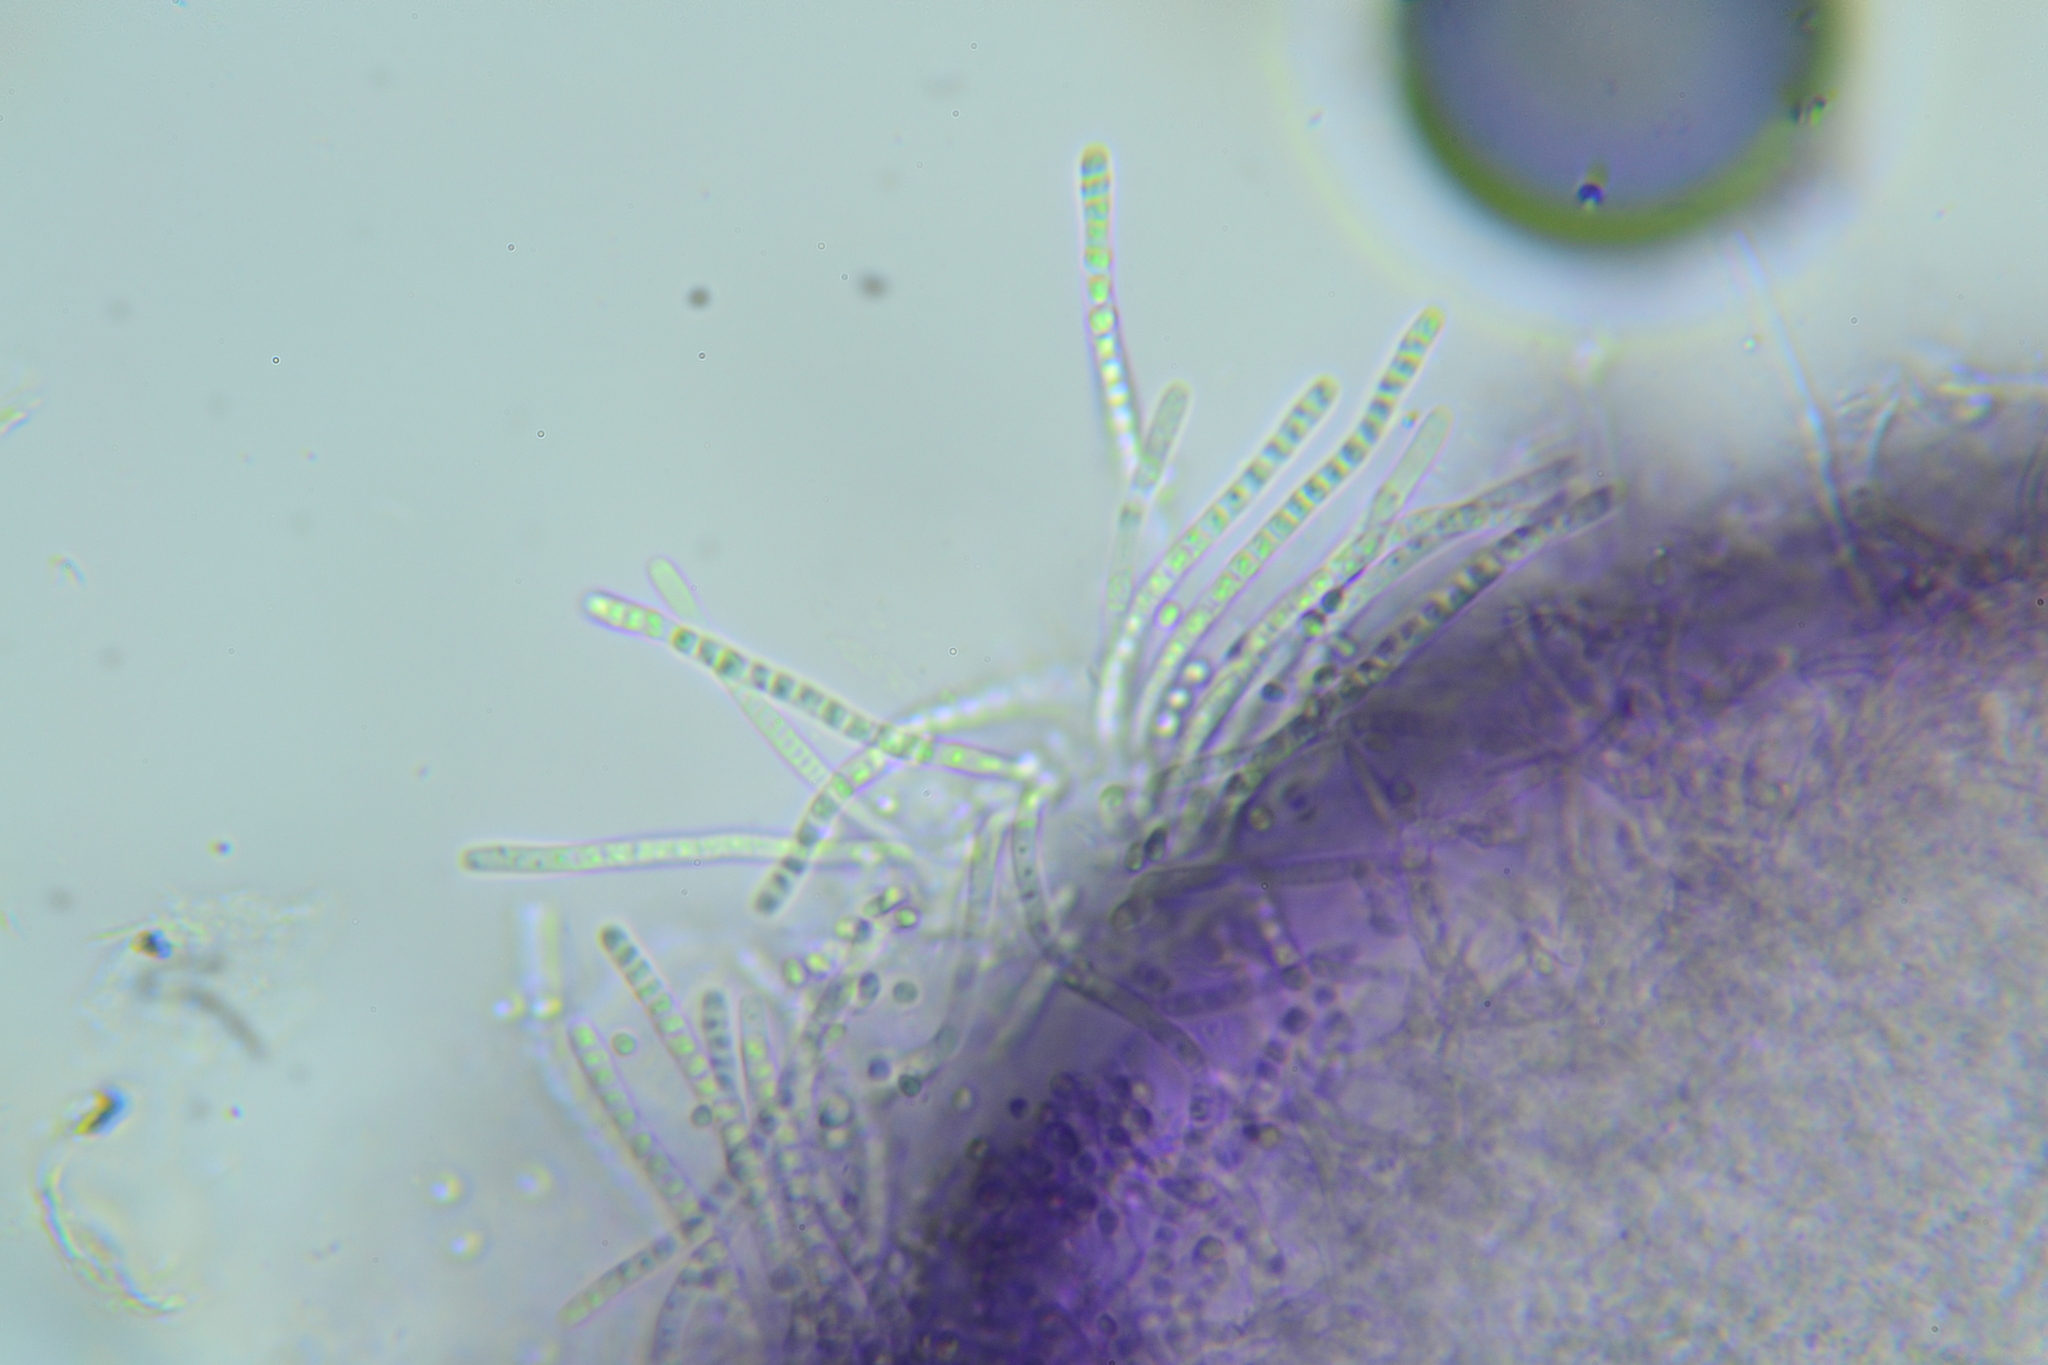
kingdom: Fungi
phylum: Ascomycota
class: Sordariomycetes
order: Hypocreales
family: Hypocreaceae
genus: Protocrea
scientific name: Protocrea pallida
